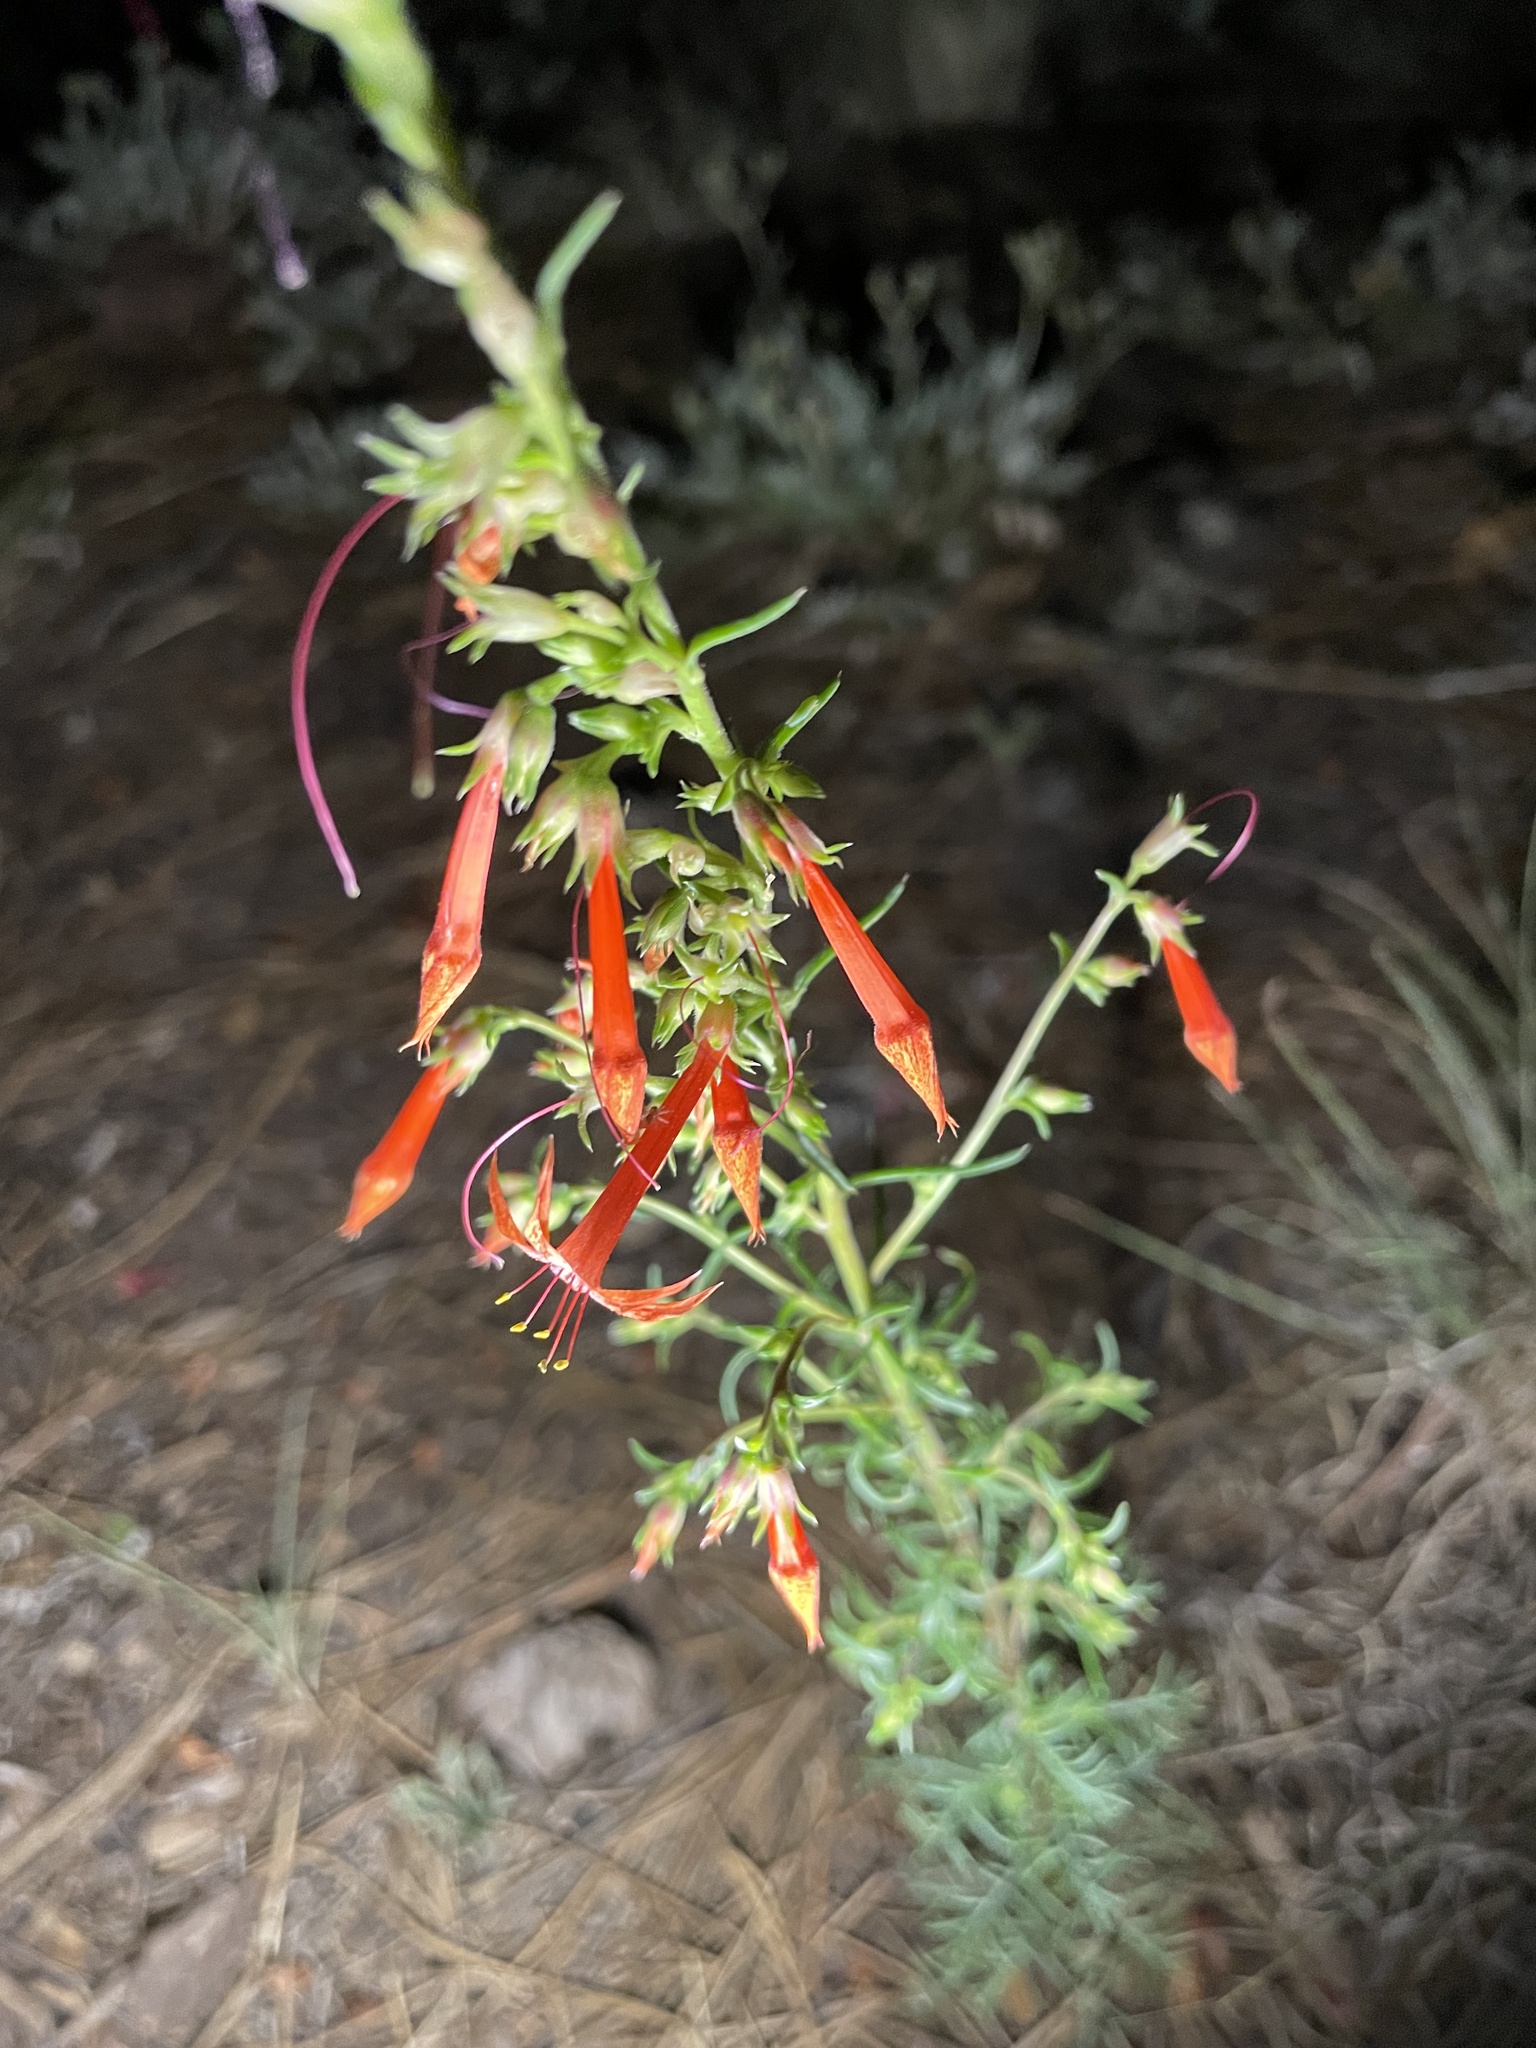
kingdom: Plantae
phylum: Tracheophyta
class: Magnoliopsida
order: Ericales
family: Polemoniaceae
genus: Ipomopsis
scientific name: Ipomopsis aggregata
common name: Scarlet gilia
